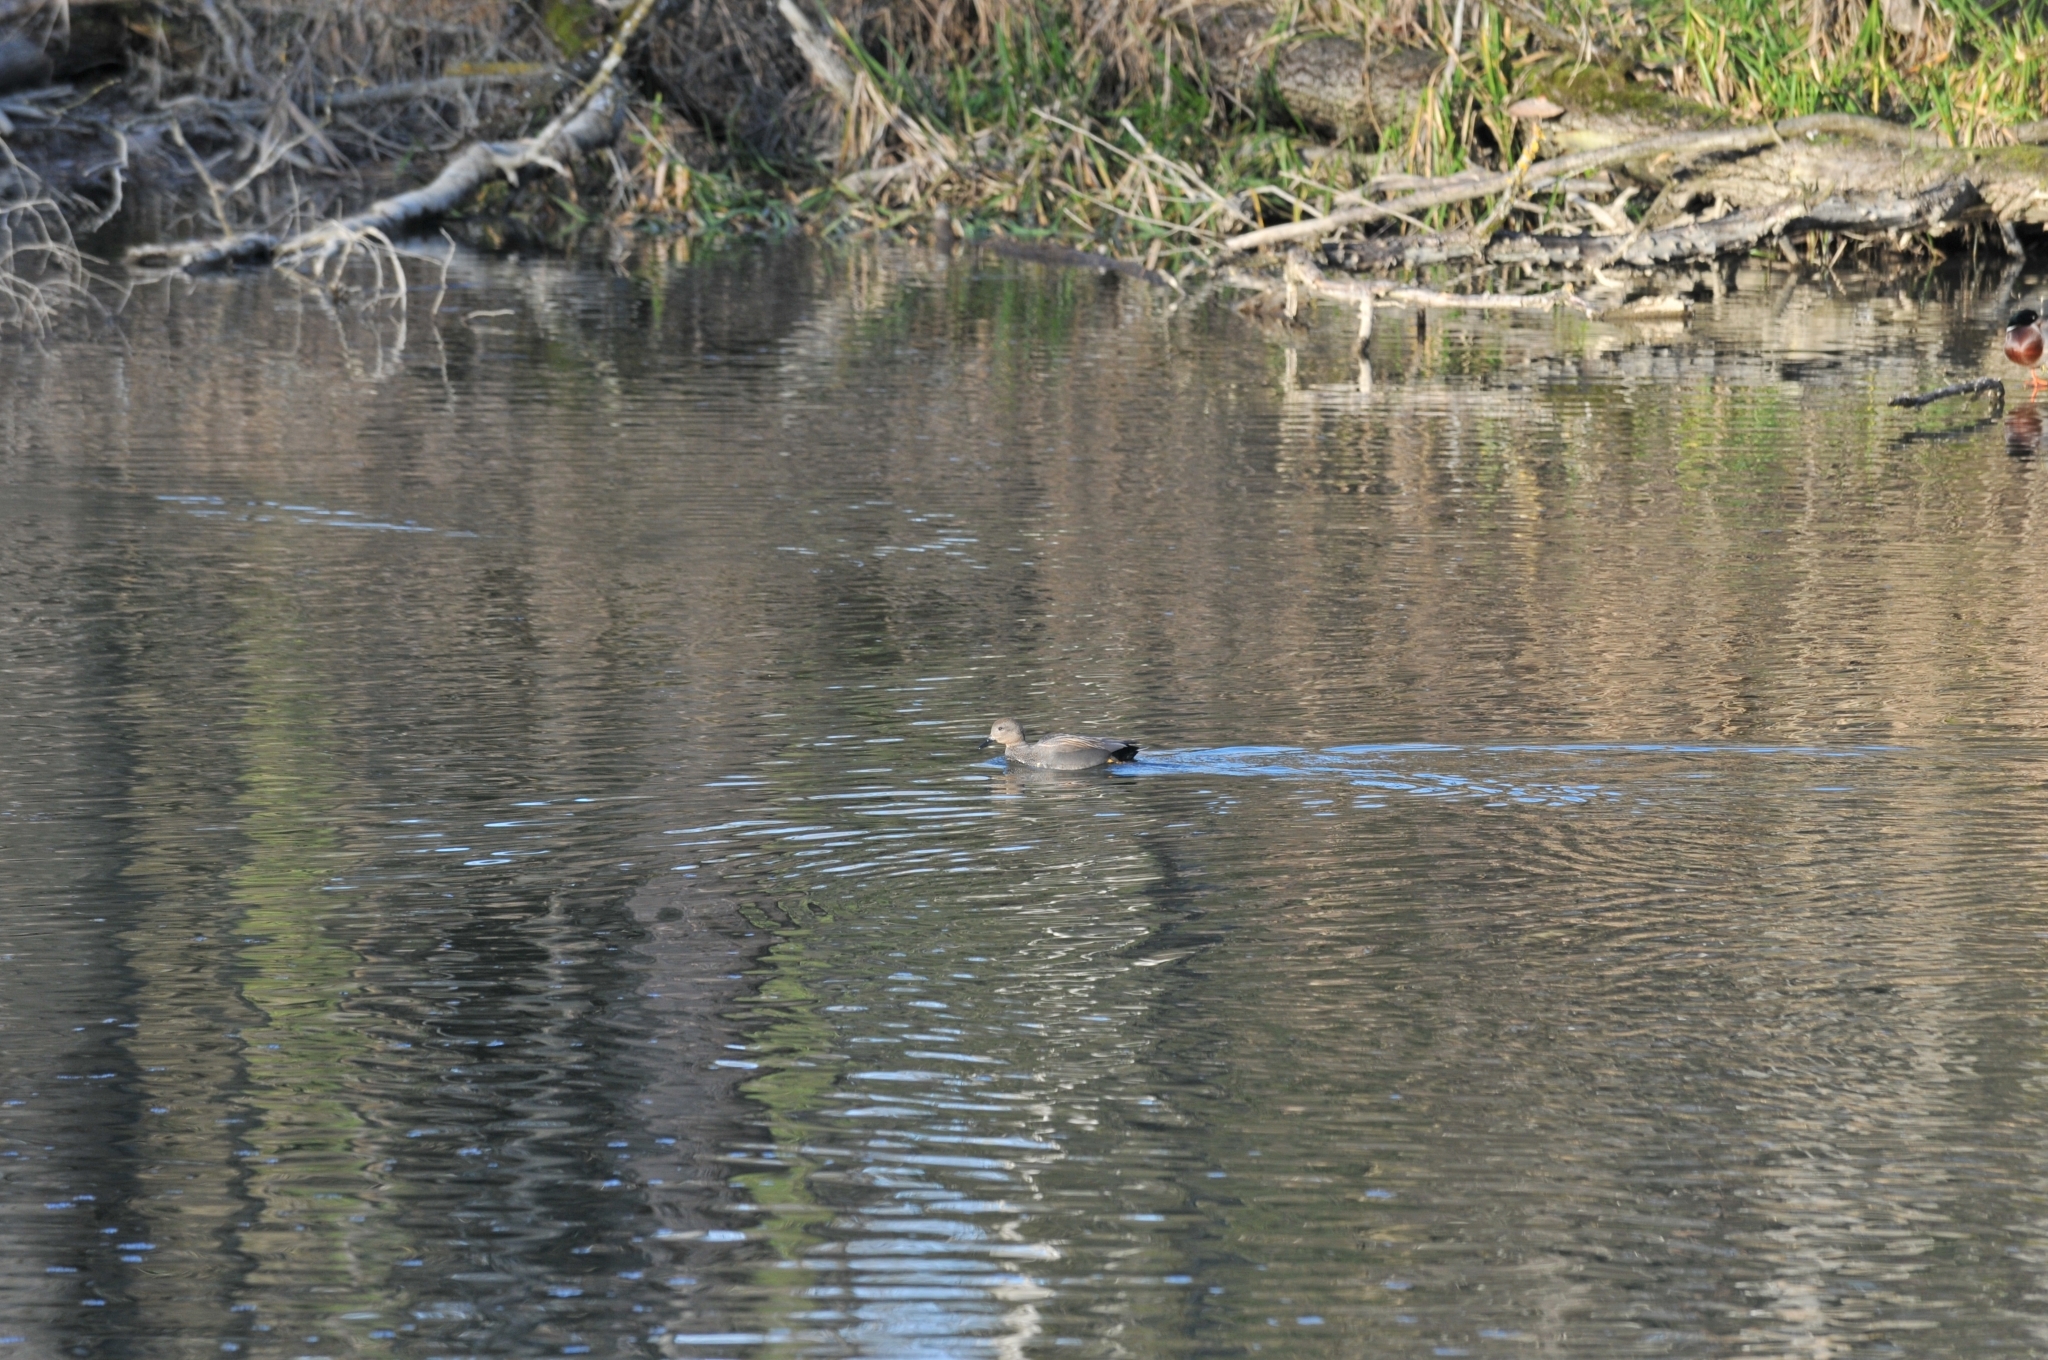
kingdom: Animalia
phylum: Chordata
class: Aves
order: Anseriformes
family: Anatidae
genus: Mareca
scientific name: Mareca strepera
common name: Gadwall
